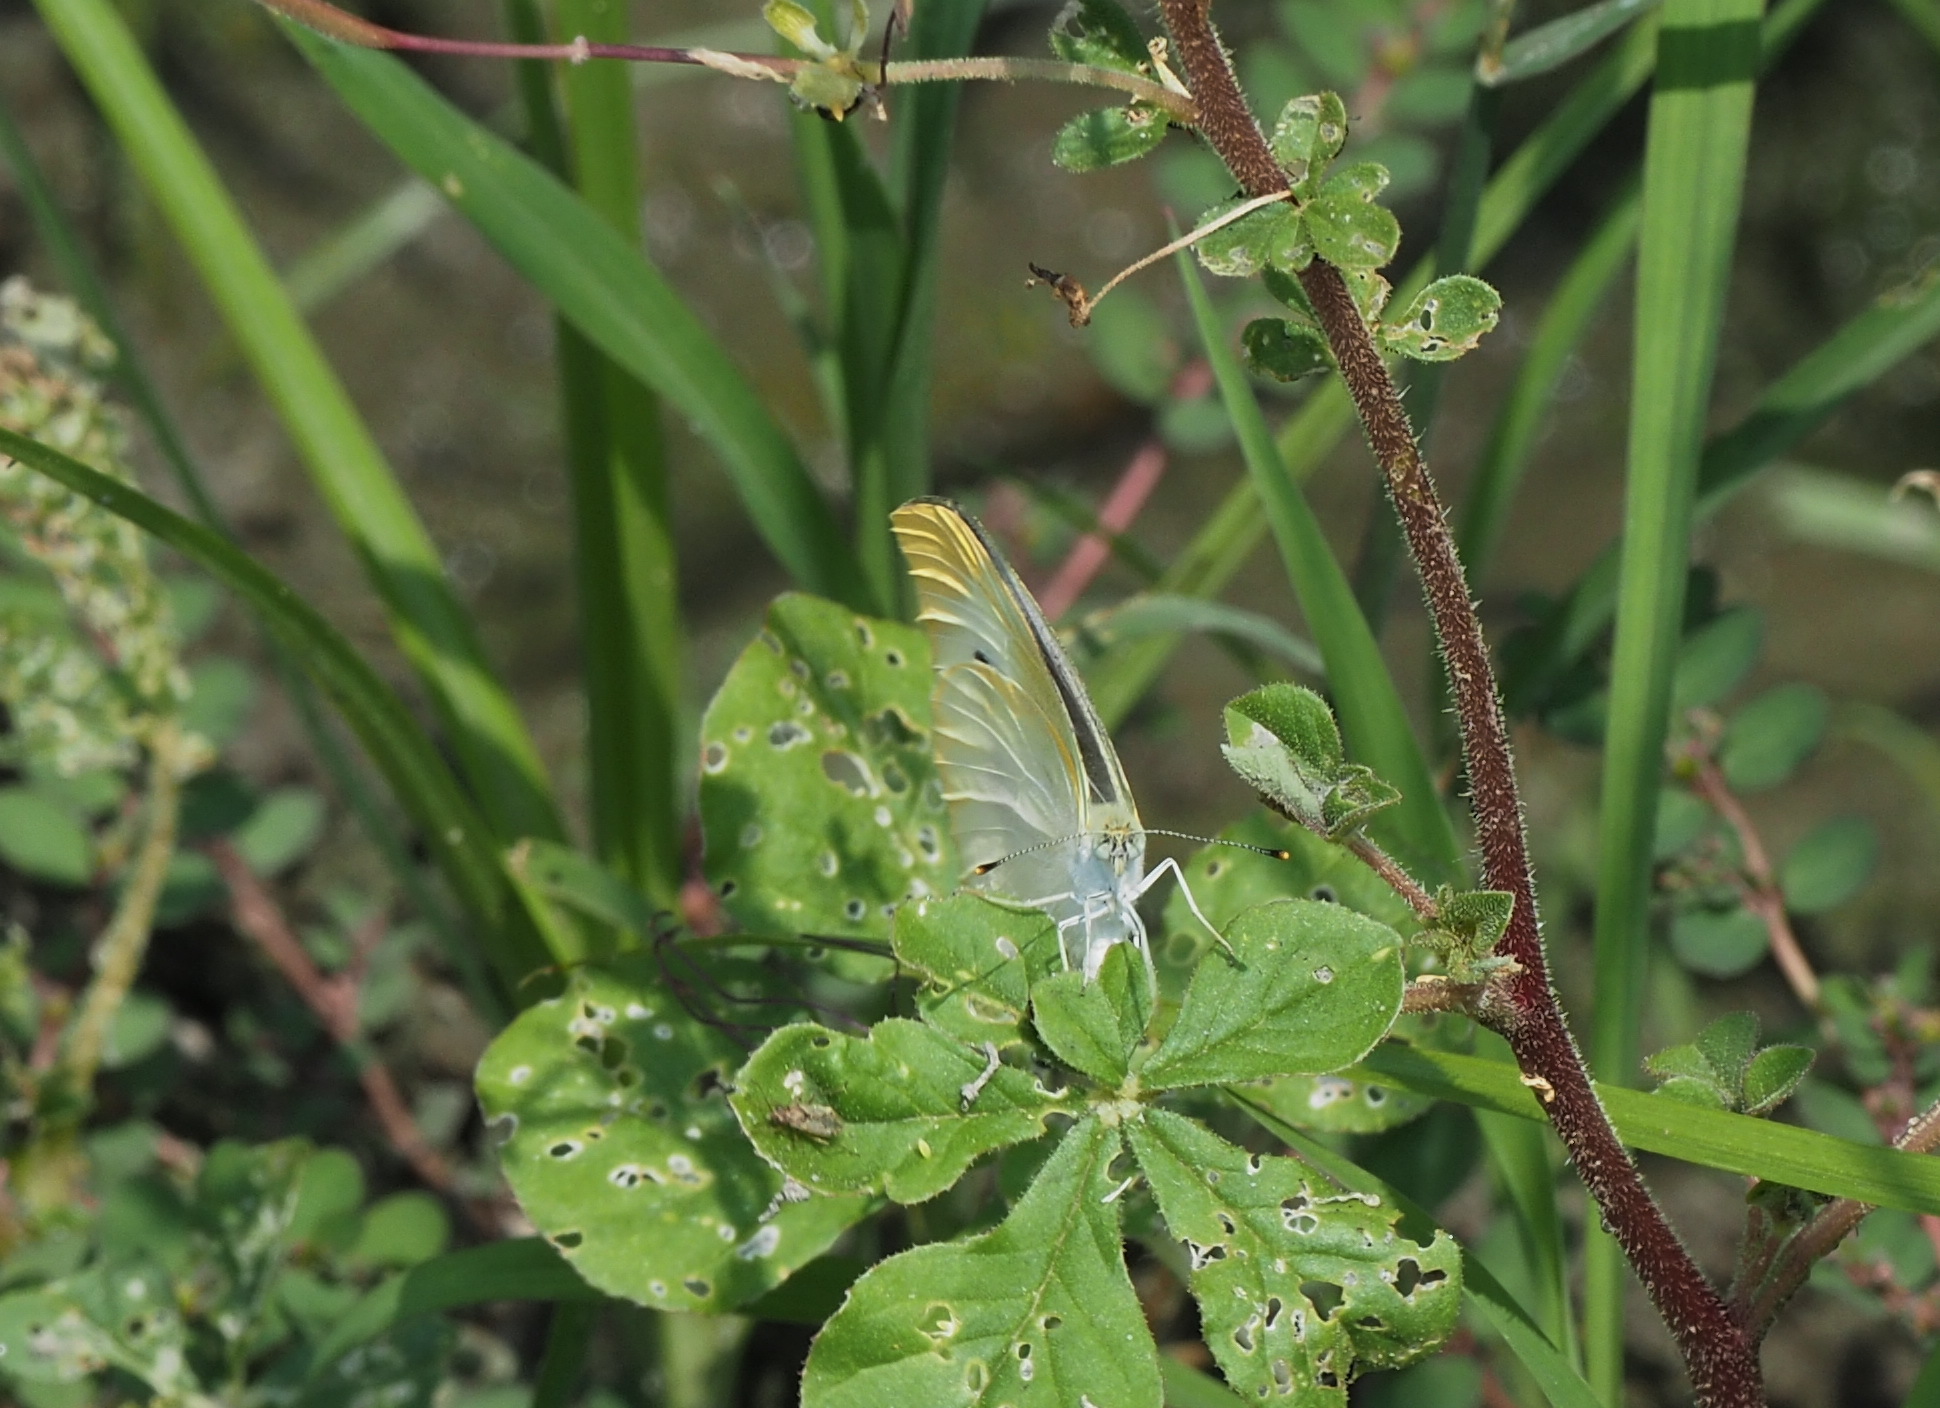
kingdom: Animalia
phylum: Arthropoda
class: Insecta
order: Lepidoptera
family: Pieridae
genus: Pieris
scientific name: Pieris rapae
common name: Small white
